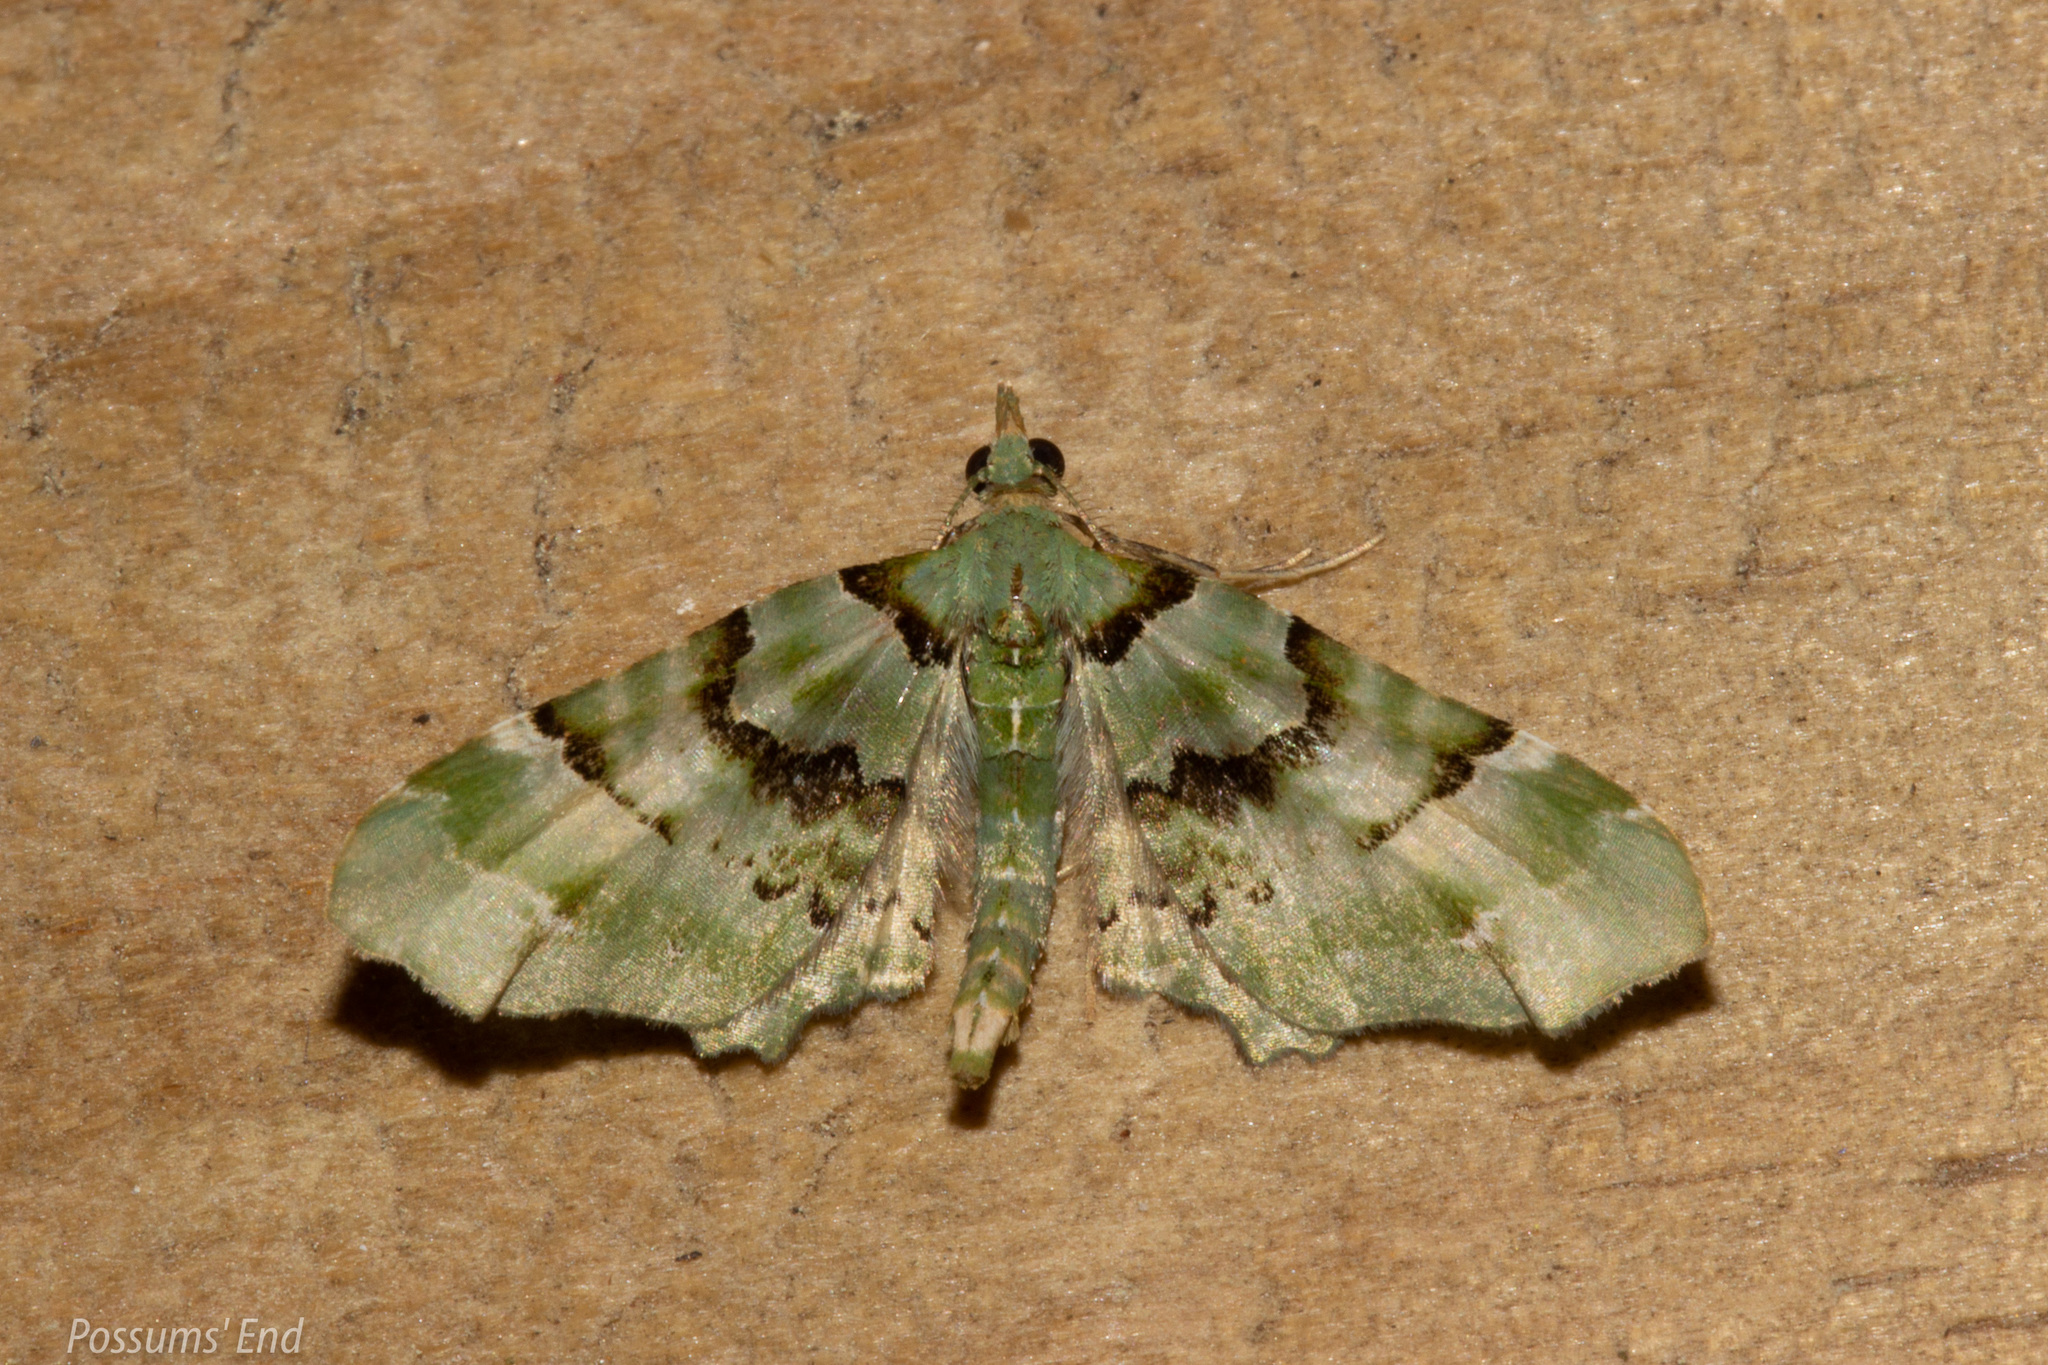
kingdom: Animalia
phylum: Arthropoda
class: Insecta
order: Lepidoptera
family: Geometridae
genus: Elvia
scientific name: Elvia glaucata
